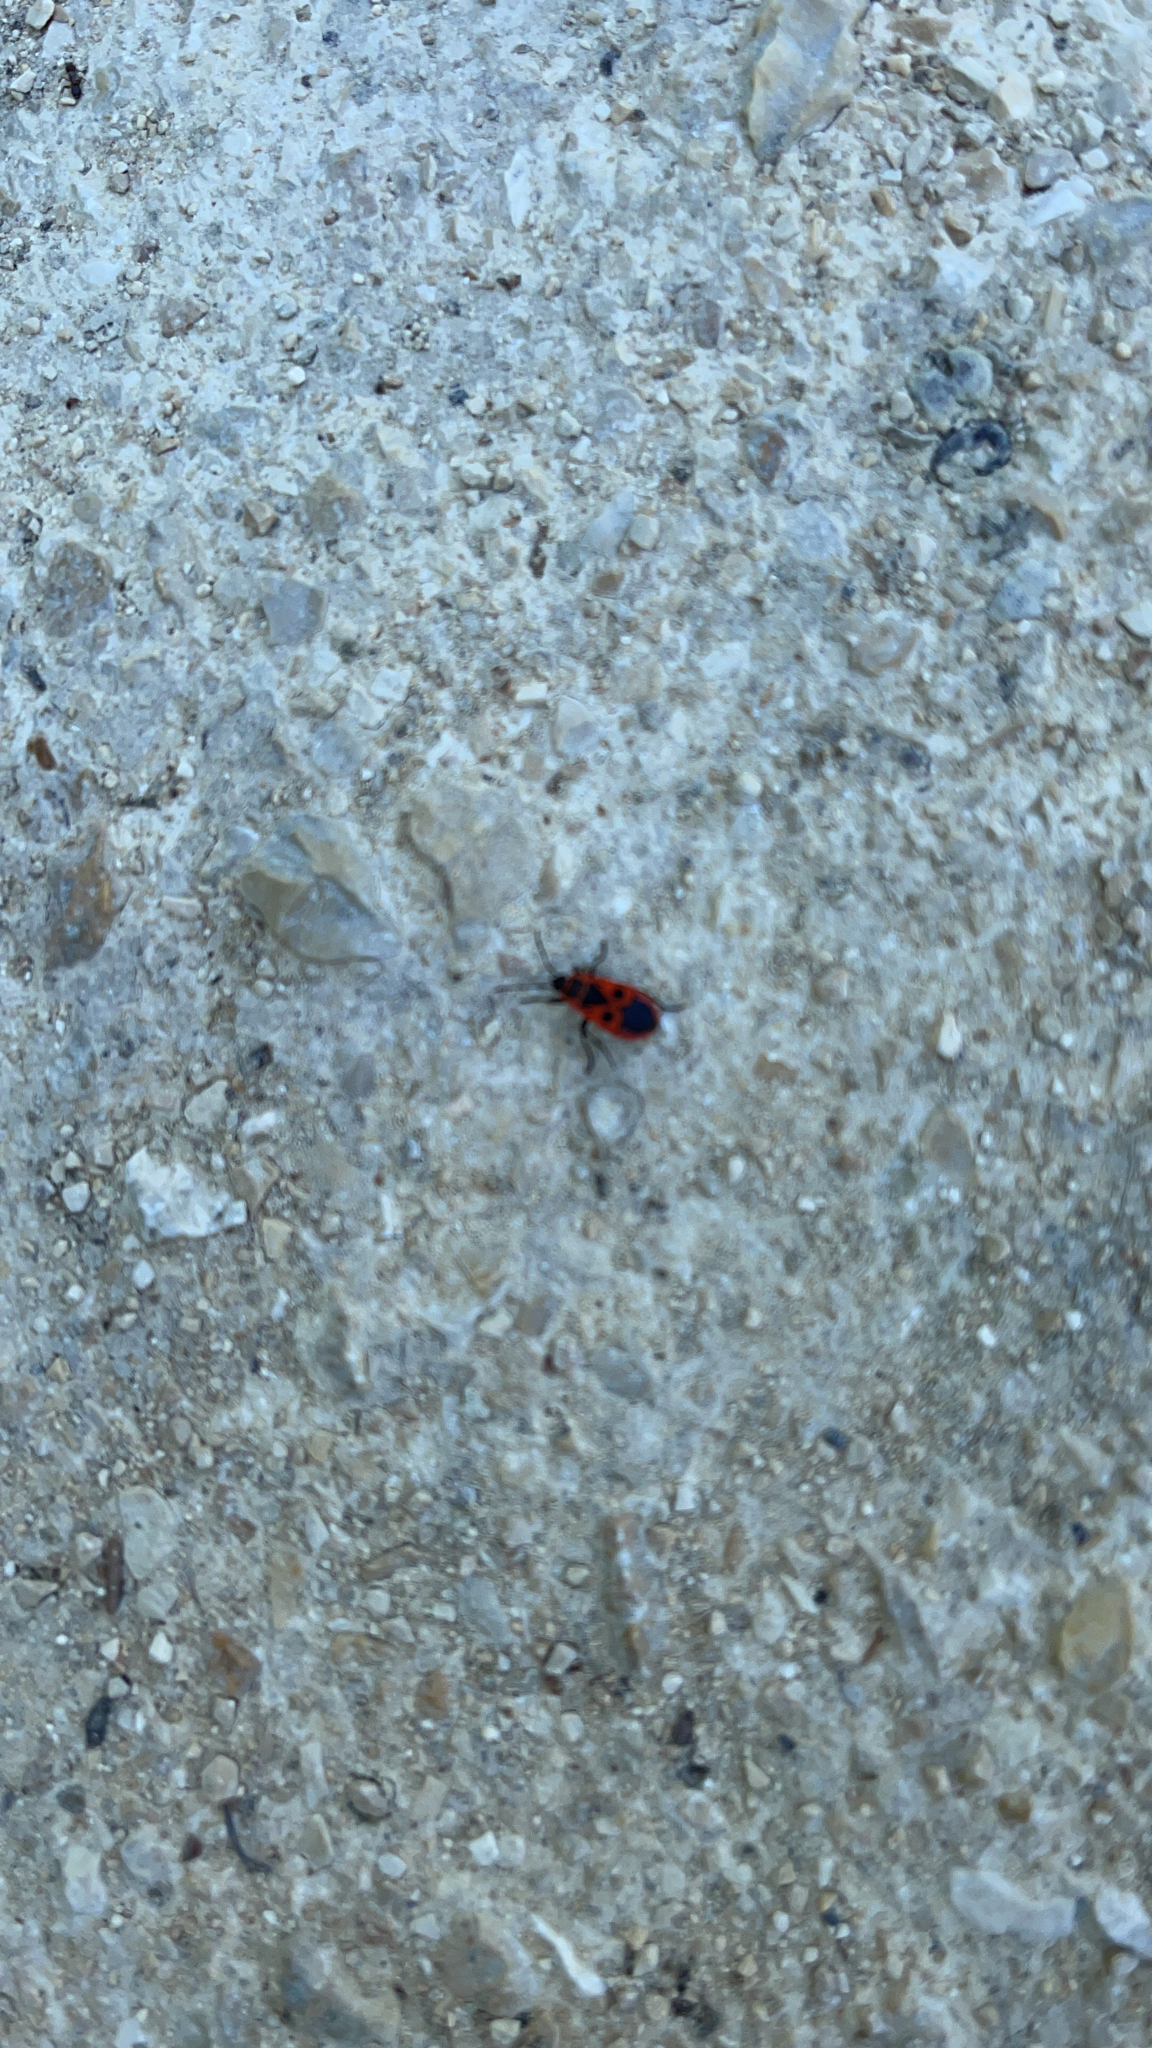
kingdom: Animalia
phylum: Arthropoda
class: Insecta
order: Hemiptera
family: Pyrrhocoridae
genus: Pyrrhocoris
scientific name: Pyrrhocoris apterus
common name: Firebug
